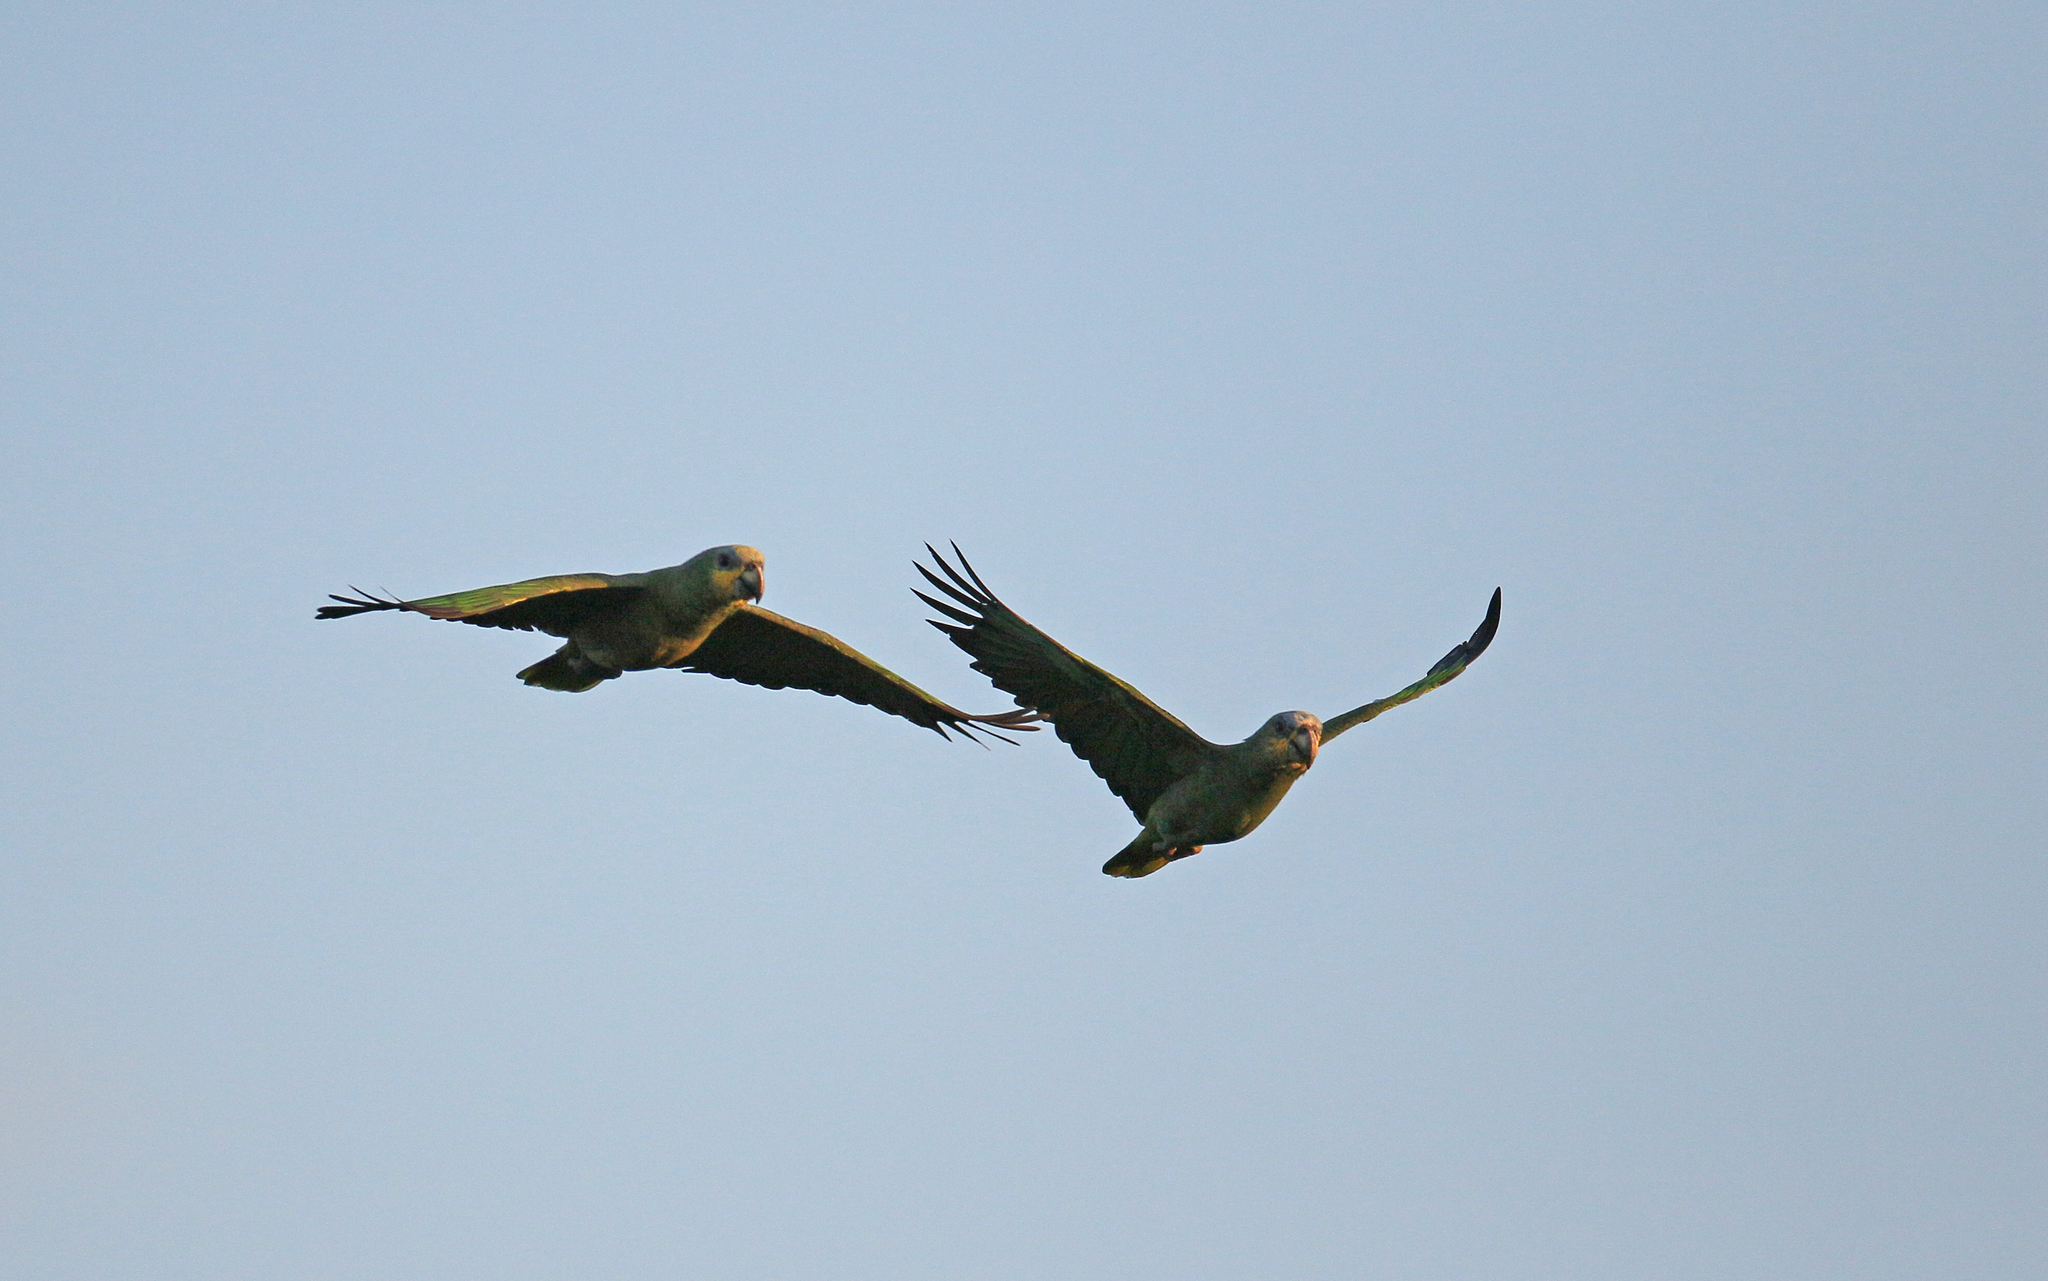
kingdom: Animalia
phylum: Chordata
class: Aves
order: Psittaciformes
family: Psittacidae
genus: Amazona
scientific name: Amazona amazonica
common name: Orange-winged amazon
